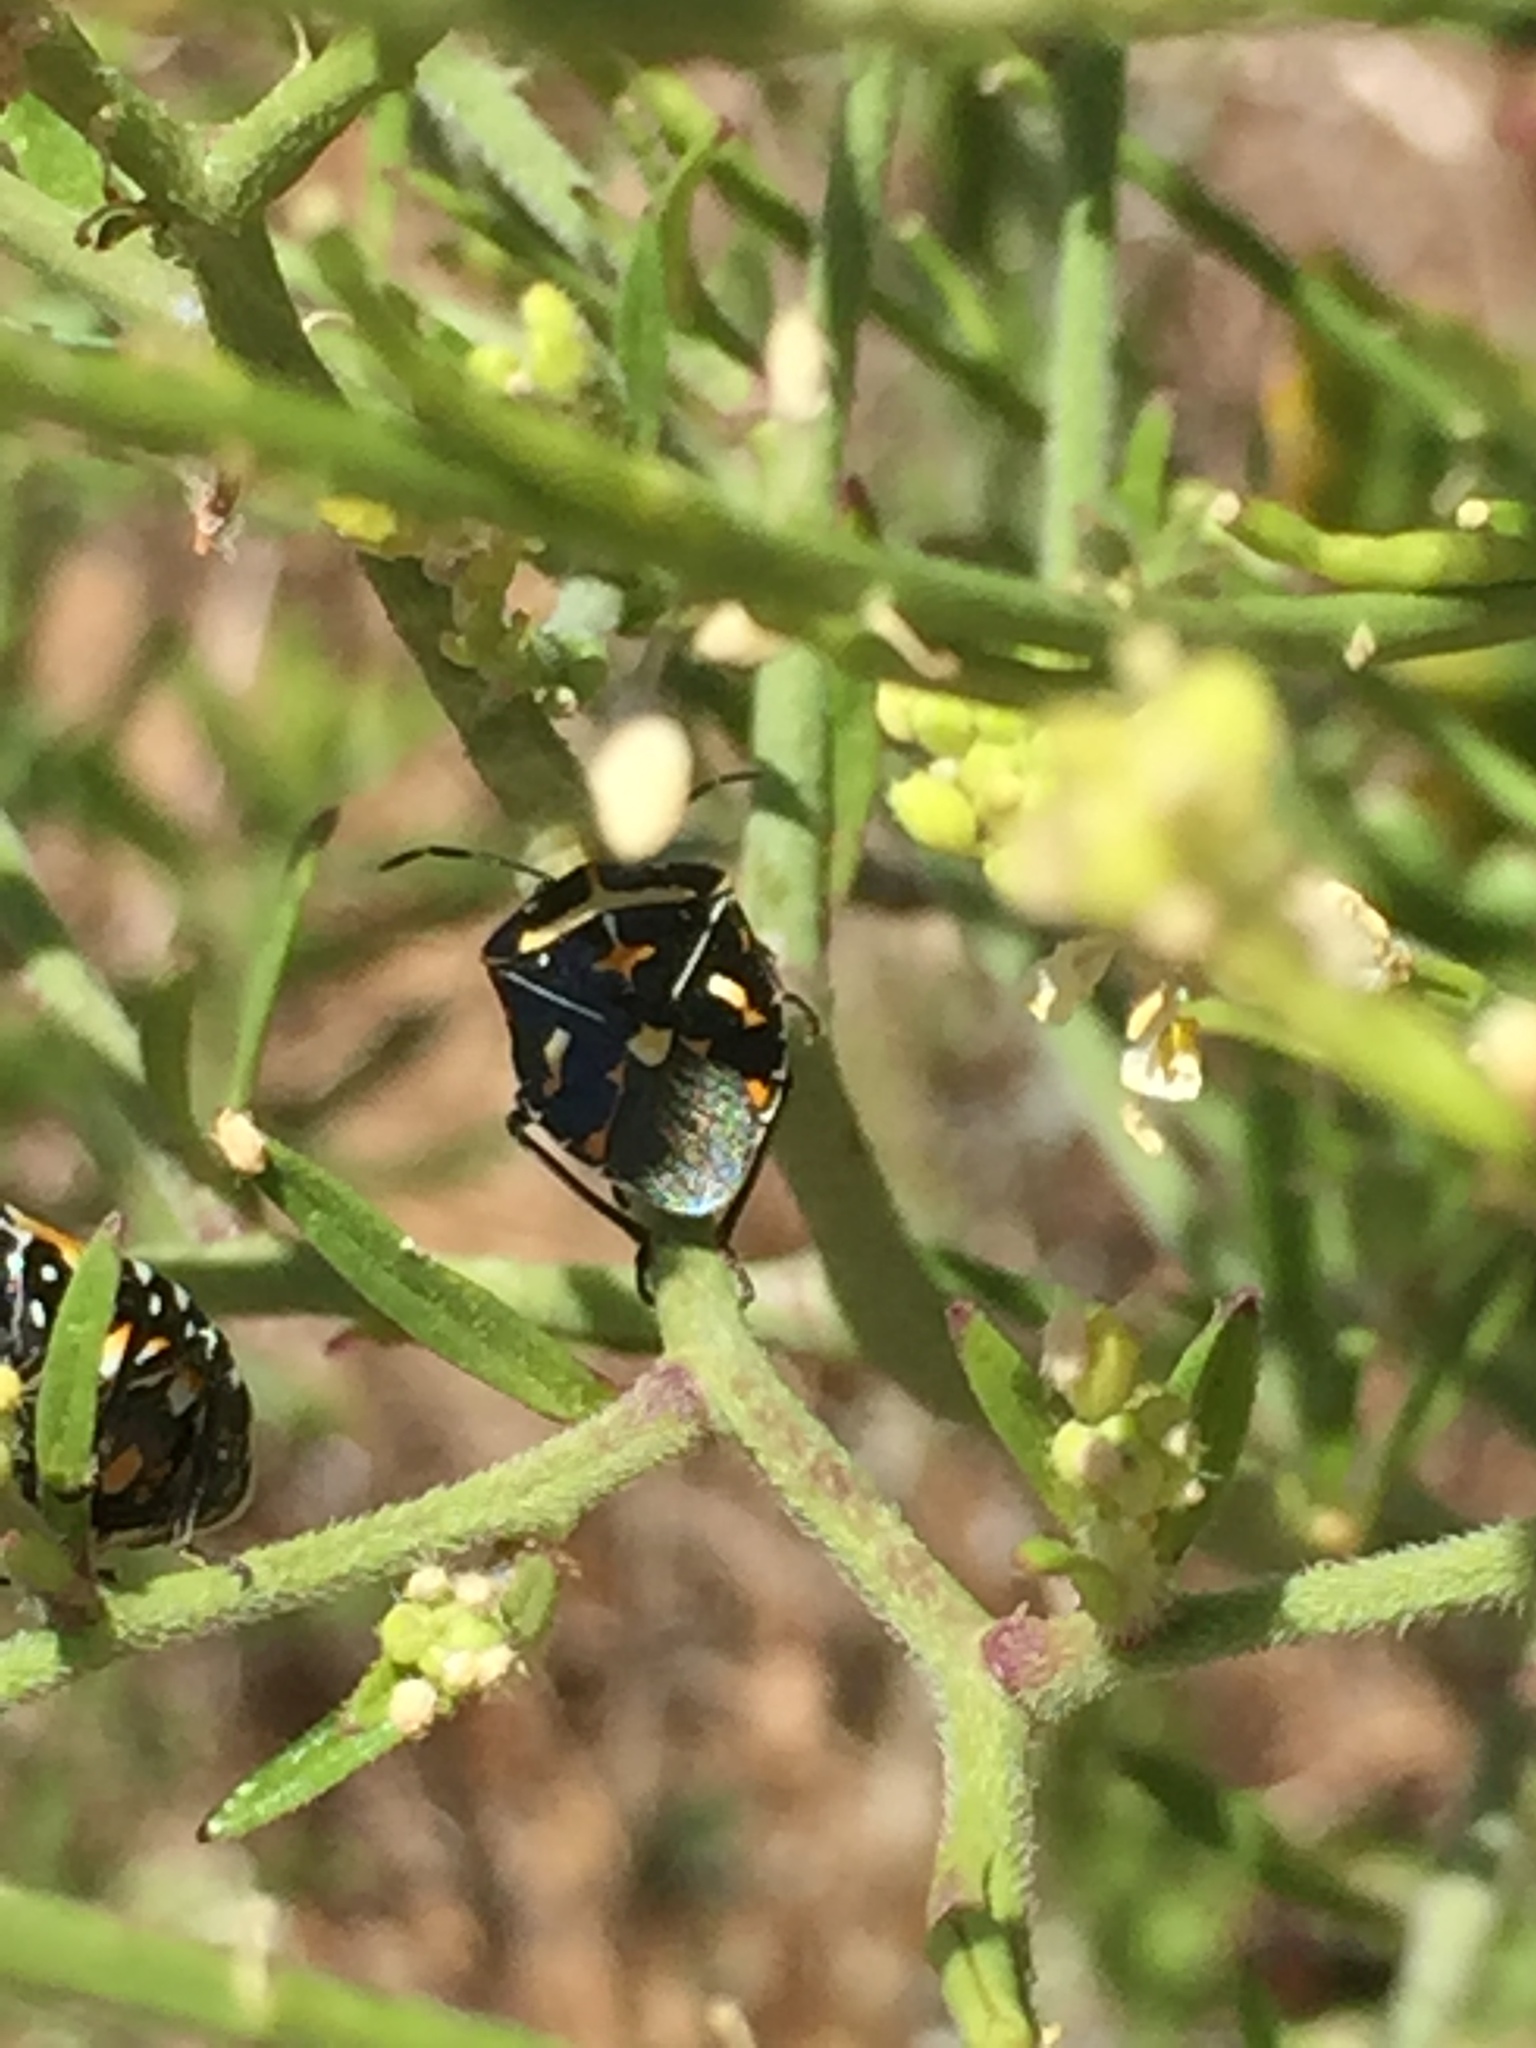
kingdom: Animalia
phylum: Arthropoda
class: Insecta
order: Hemiptera
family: Pentatomidae
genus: Murgantia
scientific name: Murgantia histrionica
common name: Harlequin bug
